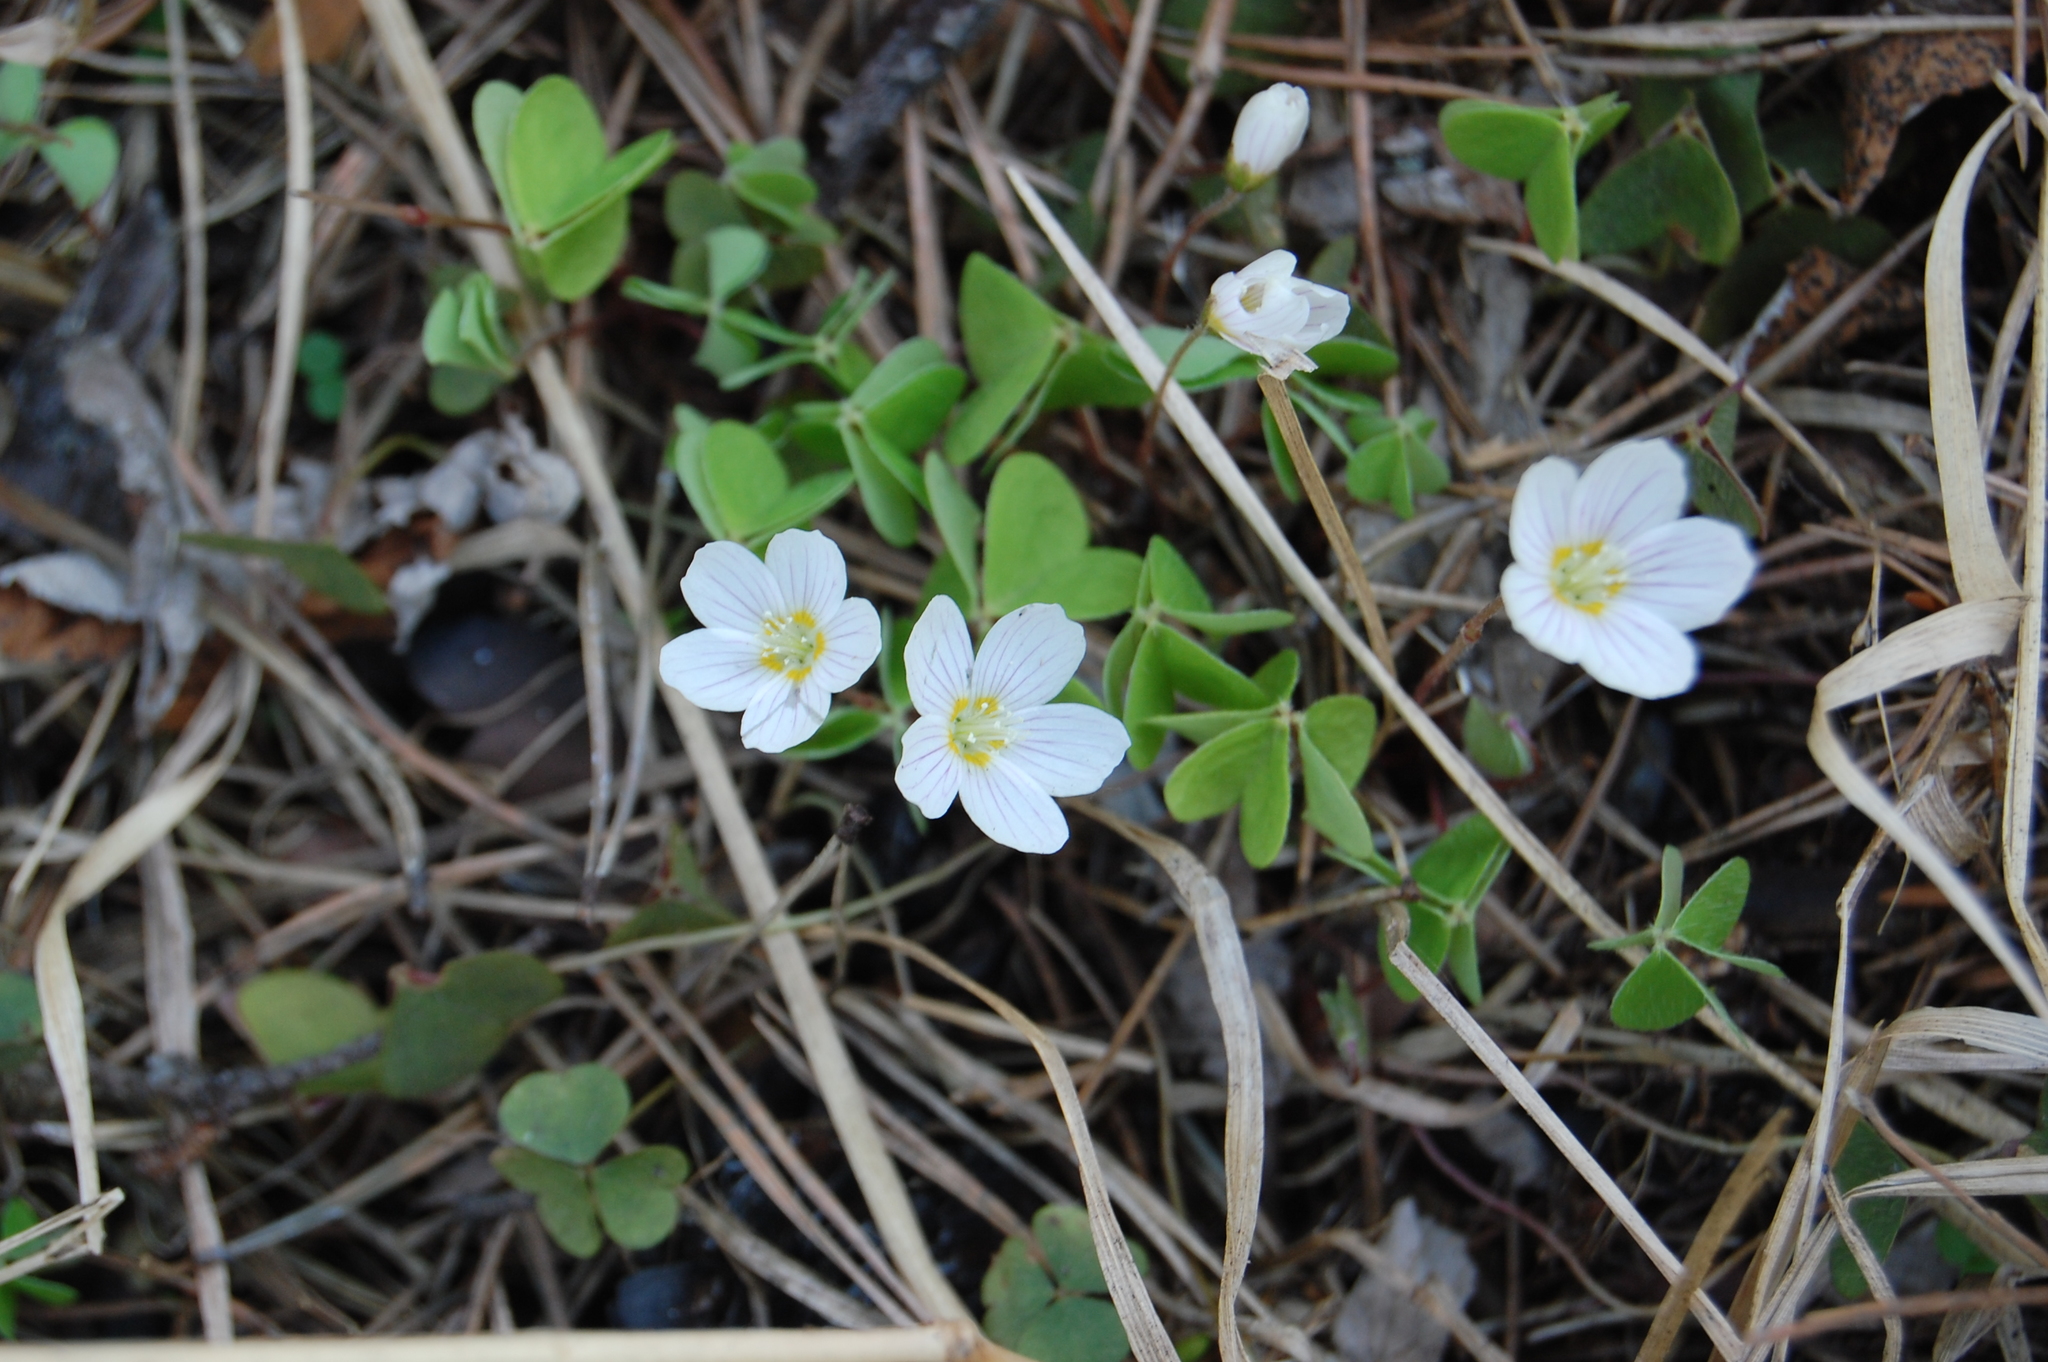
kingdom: Plantae
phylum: Tracheophyta
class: Magnoliopsida
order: Oxalidales
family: Oxalidaceae
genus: Oxalis
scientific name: Oxalis acetosella
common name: Wood-sorrel
